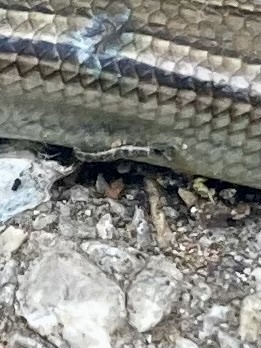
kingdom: Animalia
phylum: Chordata
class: Squamata
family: Scincidae
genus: Chalcides
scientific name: Chalcides chalcides
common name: Italian three-toed skink
